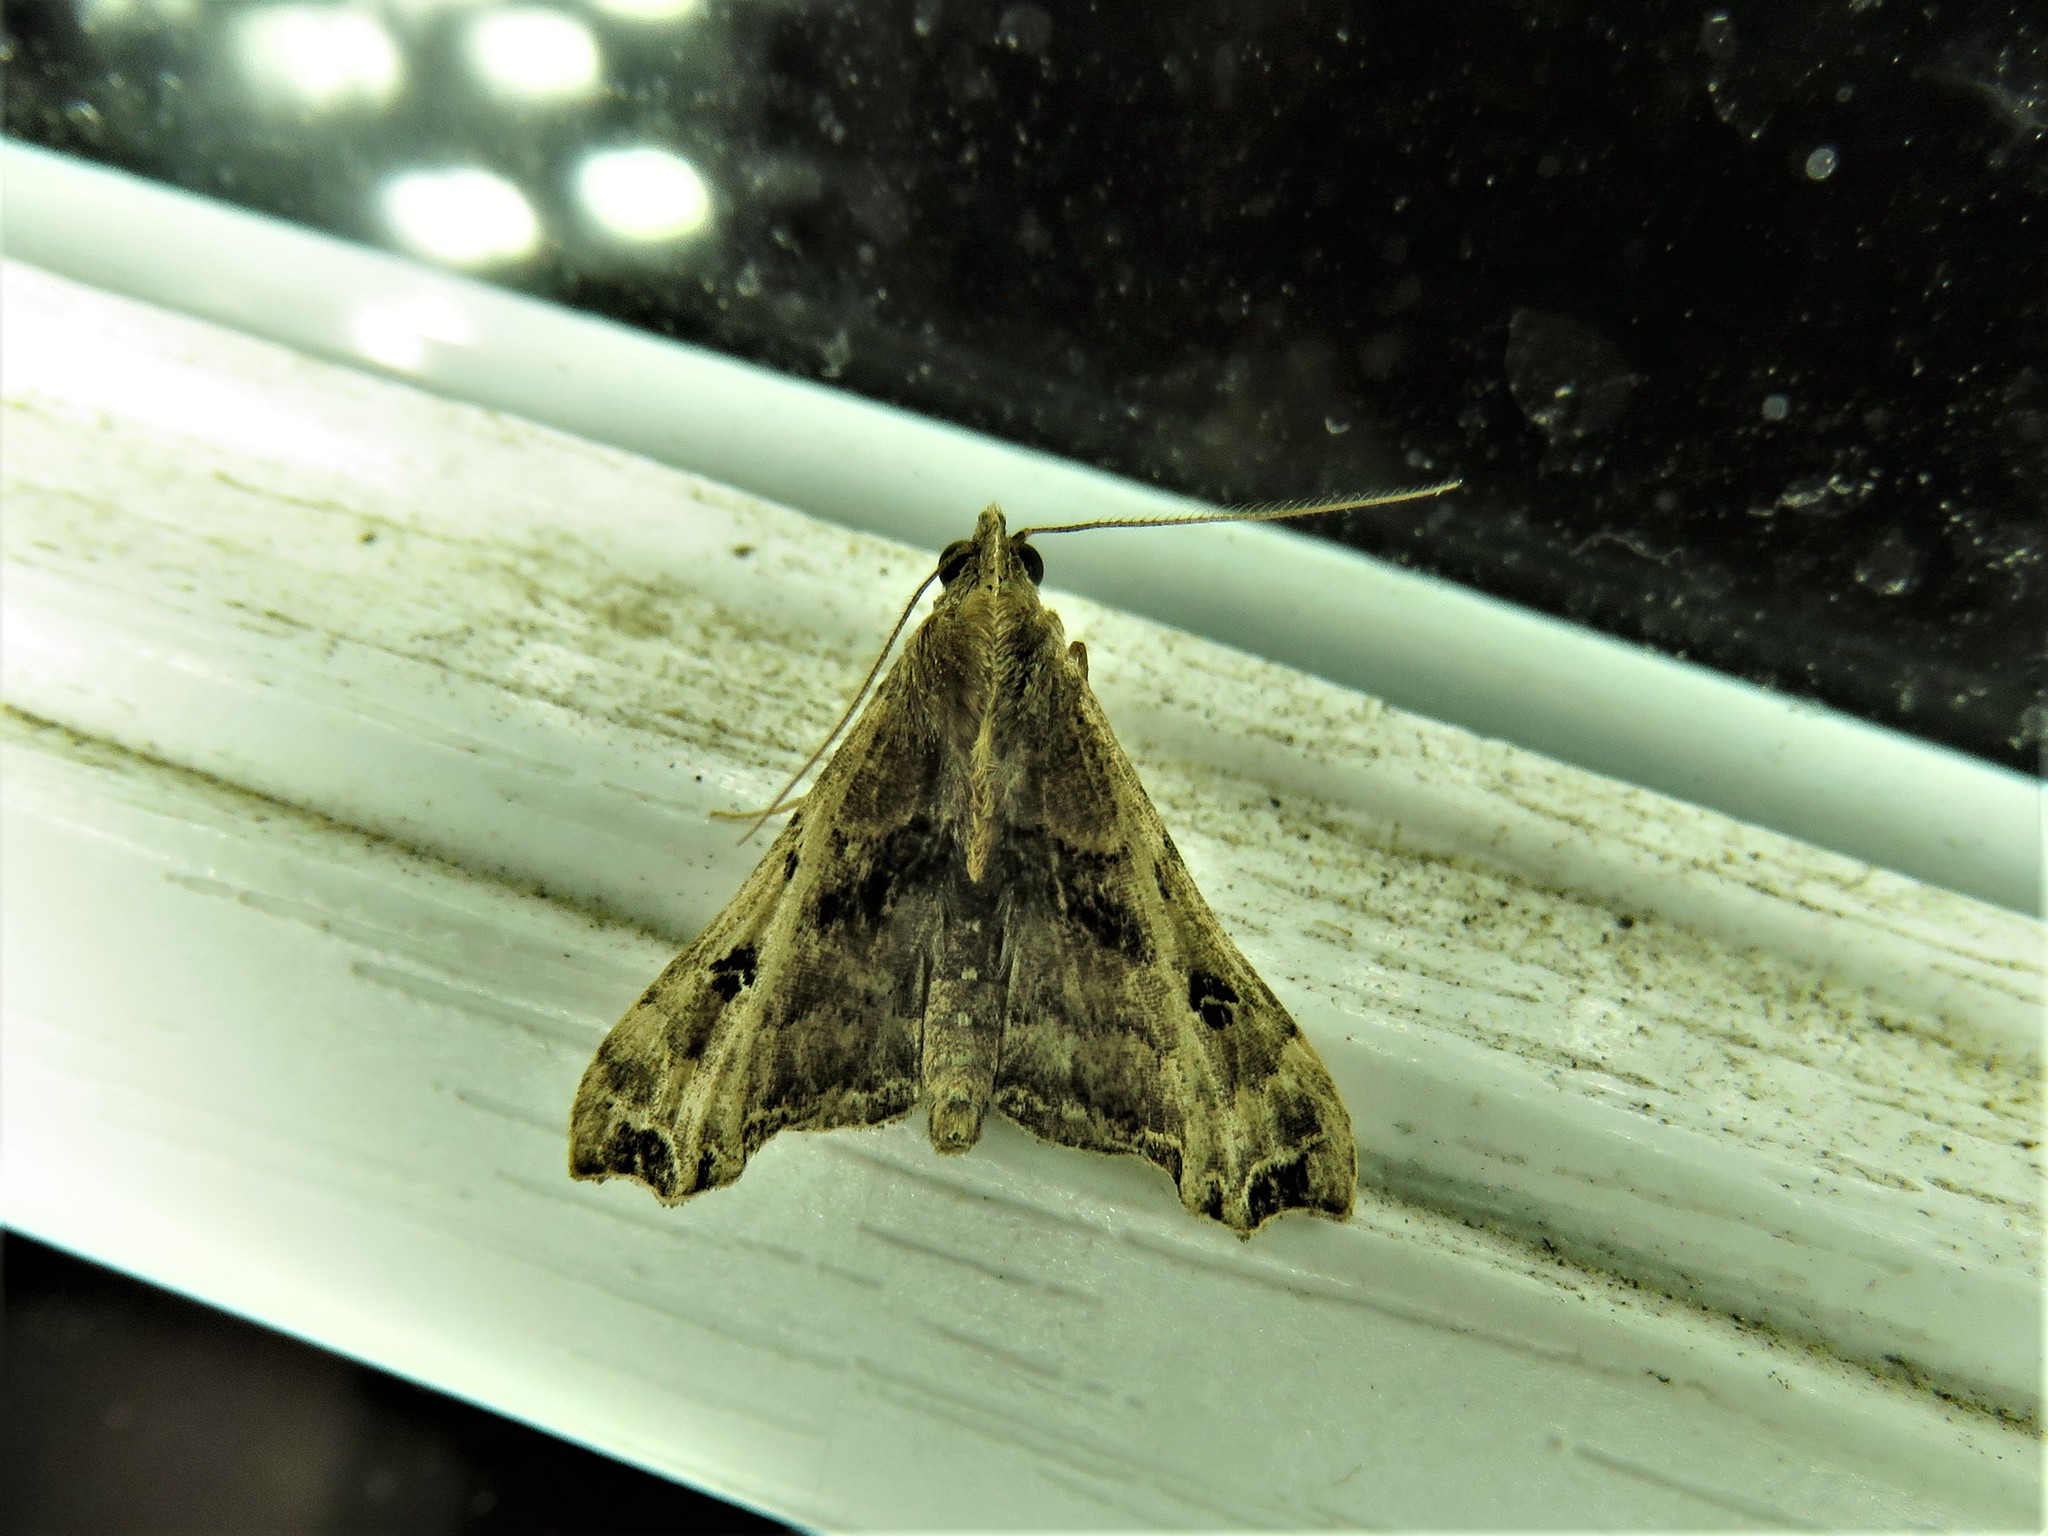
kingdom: Animalia
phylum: Arthropoda
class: Insecta
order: Lepidoptera
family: Erebidae
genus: Palthis
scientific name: Palthis asopialis
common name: Faint-spotted palthis moth
